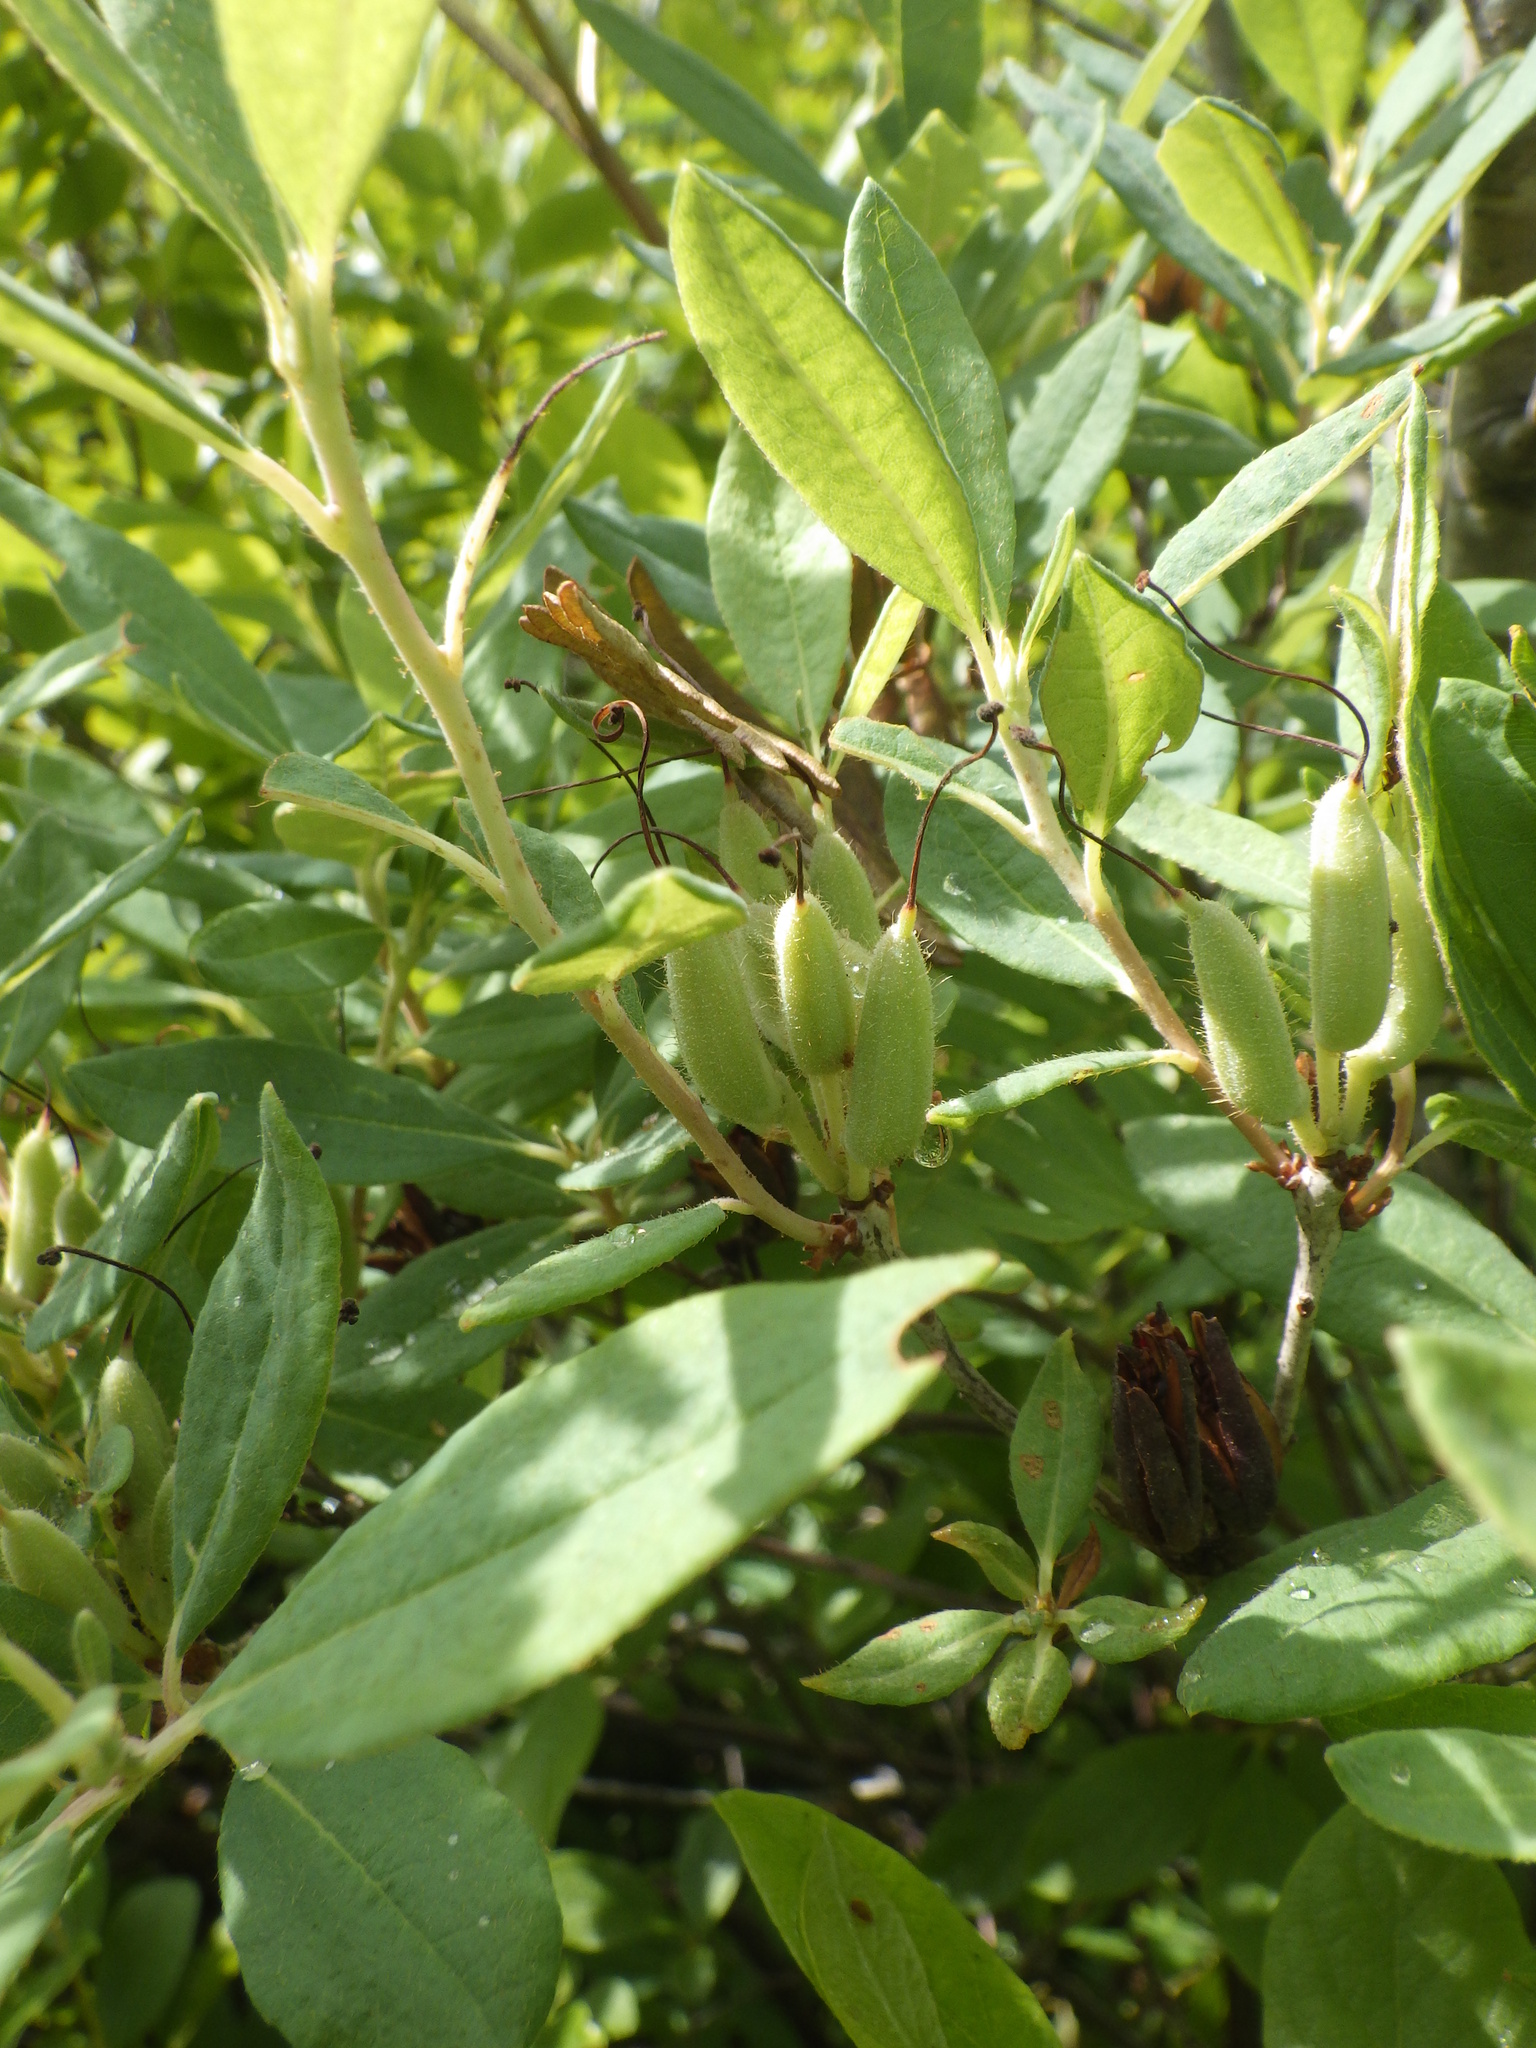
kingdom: Plantae
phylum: Tracheophyta
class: Magnoliopsida
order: Ericales
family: Ericaceae
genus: Rhododendron
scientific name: Rhododendron canadense
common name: Rhodora
